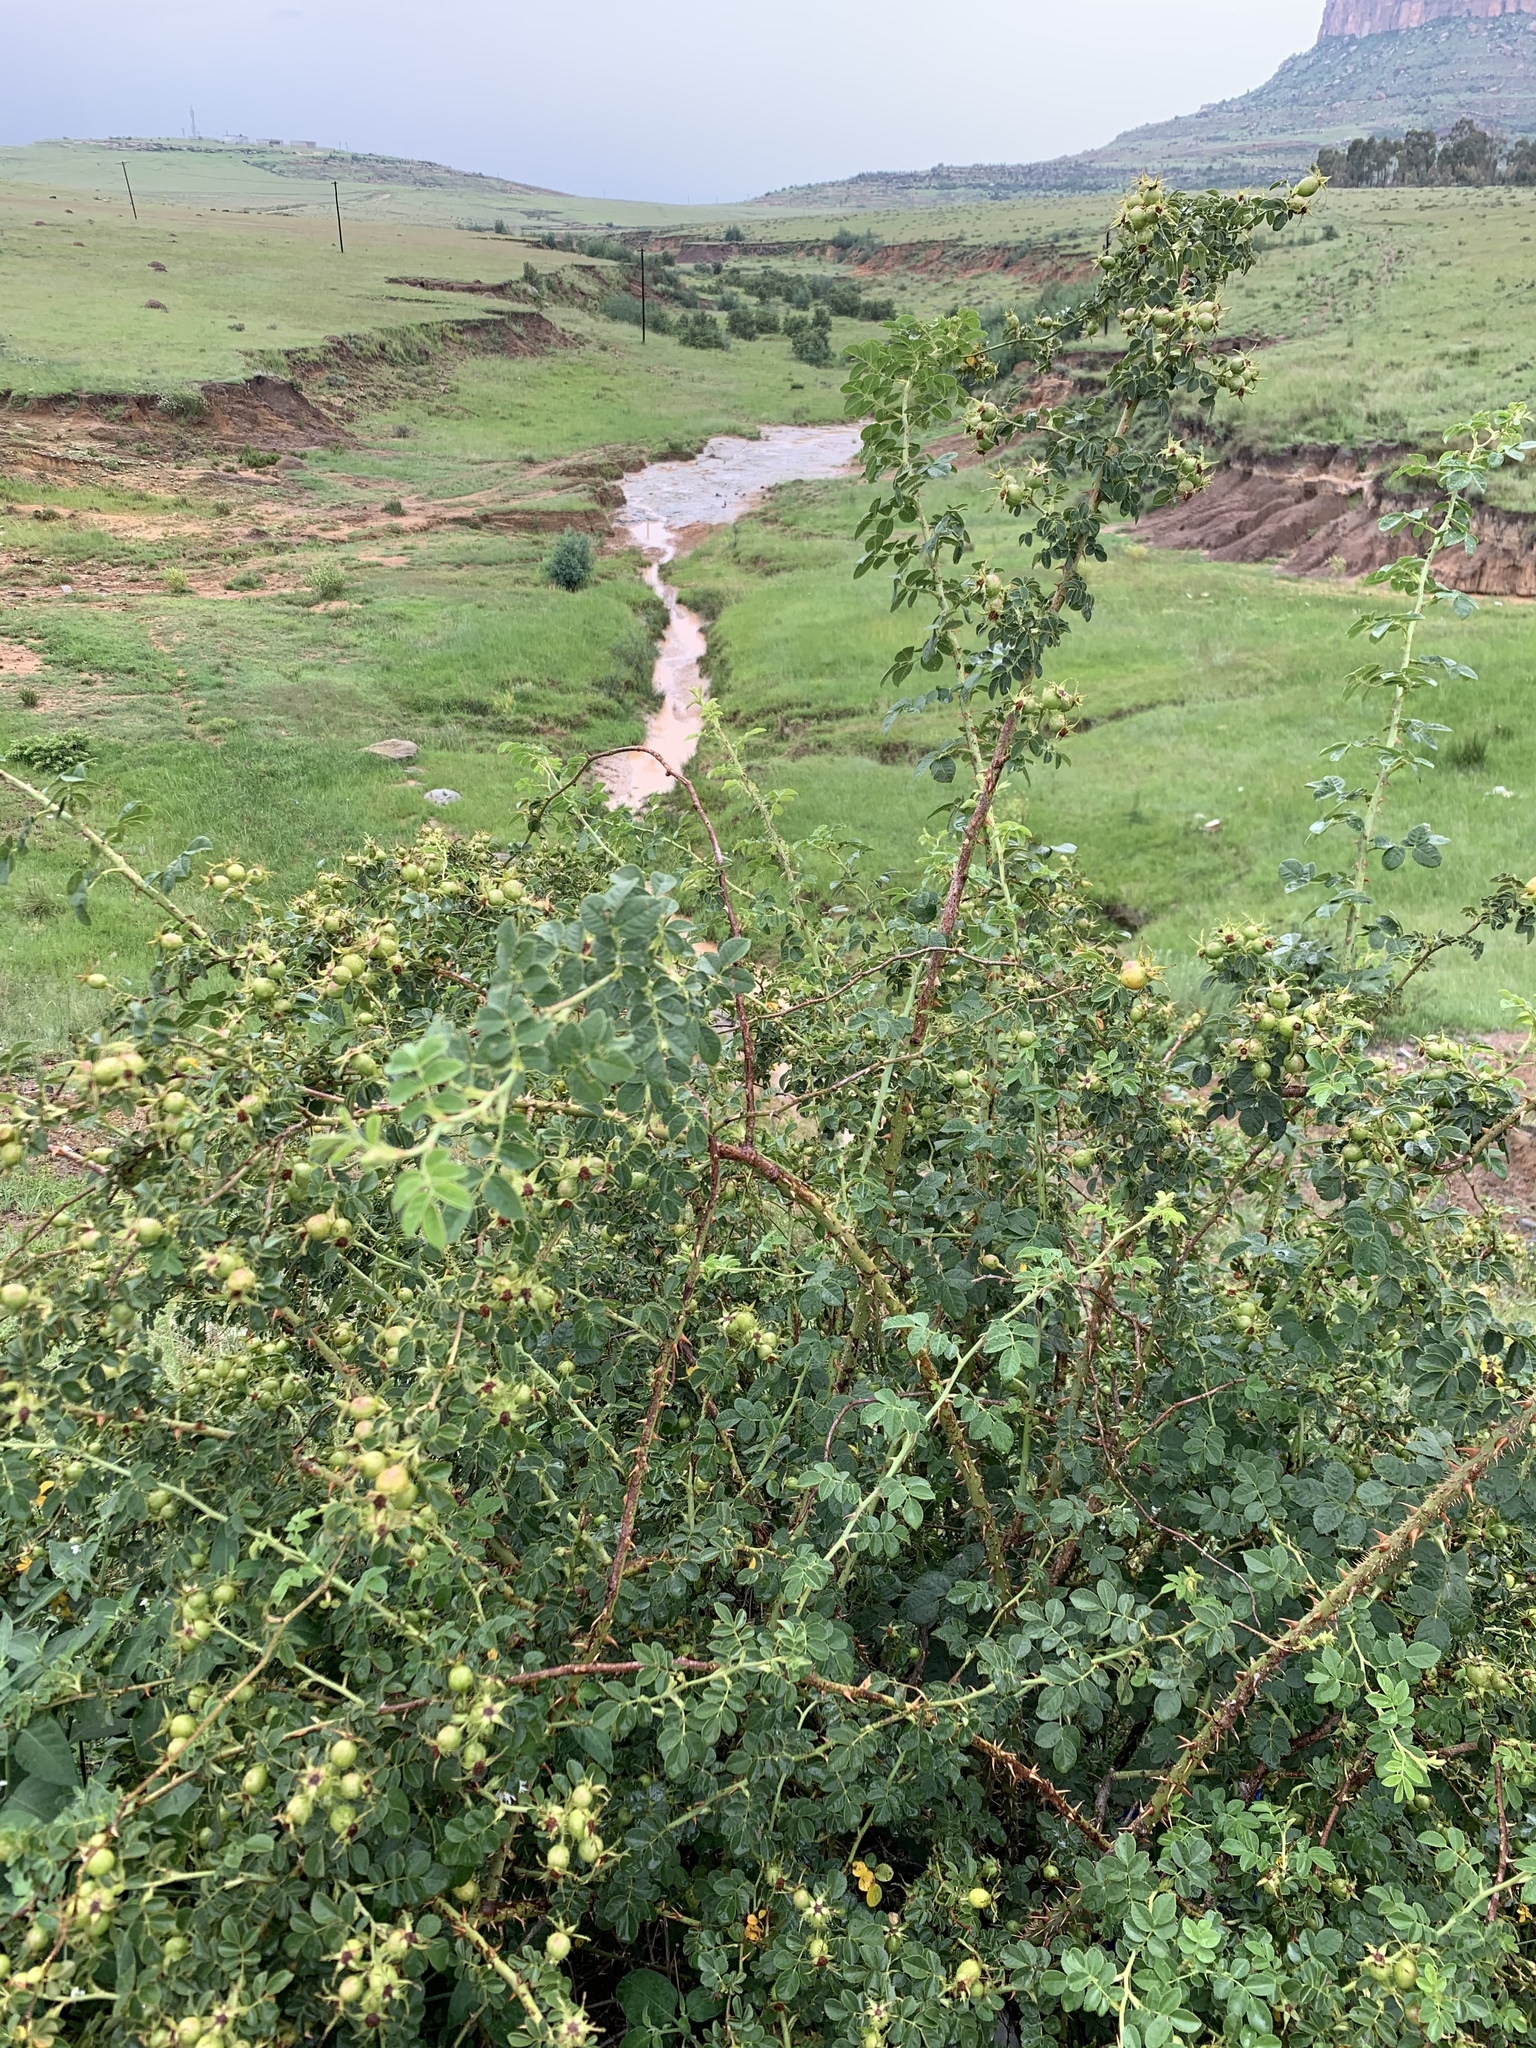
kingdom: Plantae
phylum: Tracheophyta
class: Magnoliopsida
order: Rosales
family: Rosaceae
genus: Rosa
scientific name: Rosa rubiginosa
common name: Sweet-briar
